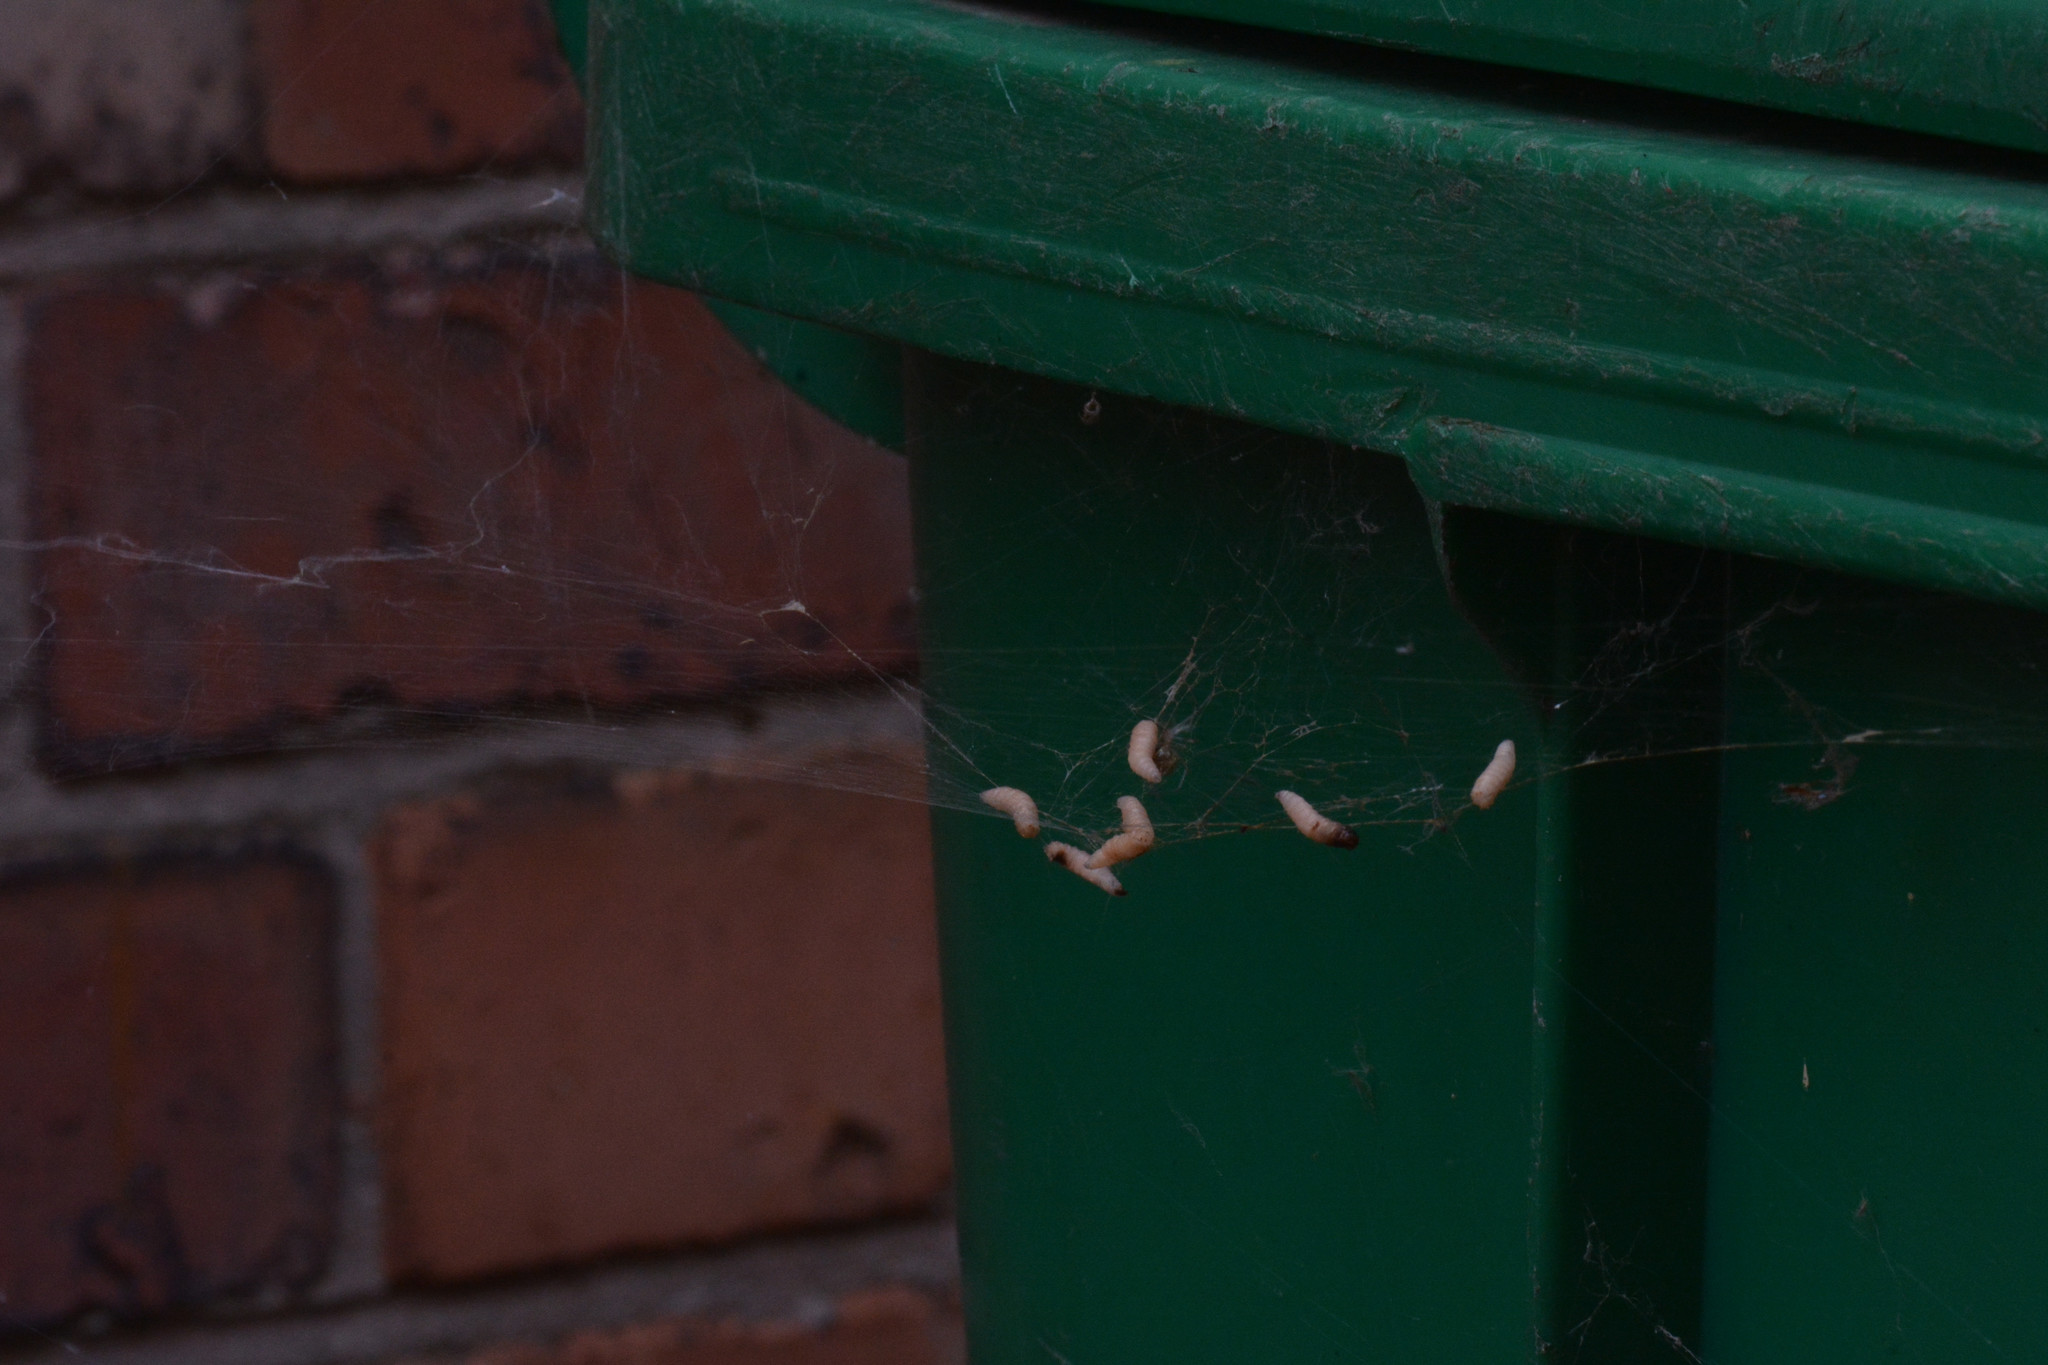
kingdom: Animalia
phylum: Arthropoda
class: Arachnida
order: Araneae
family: Theridiidae
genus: Enoplognatha
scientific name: Enoplognatha
